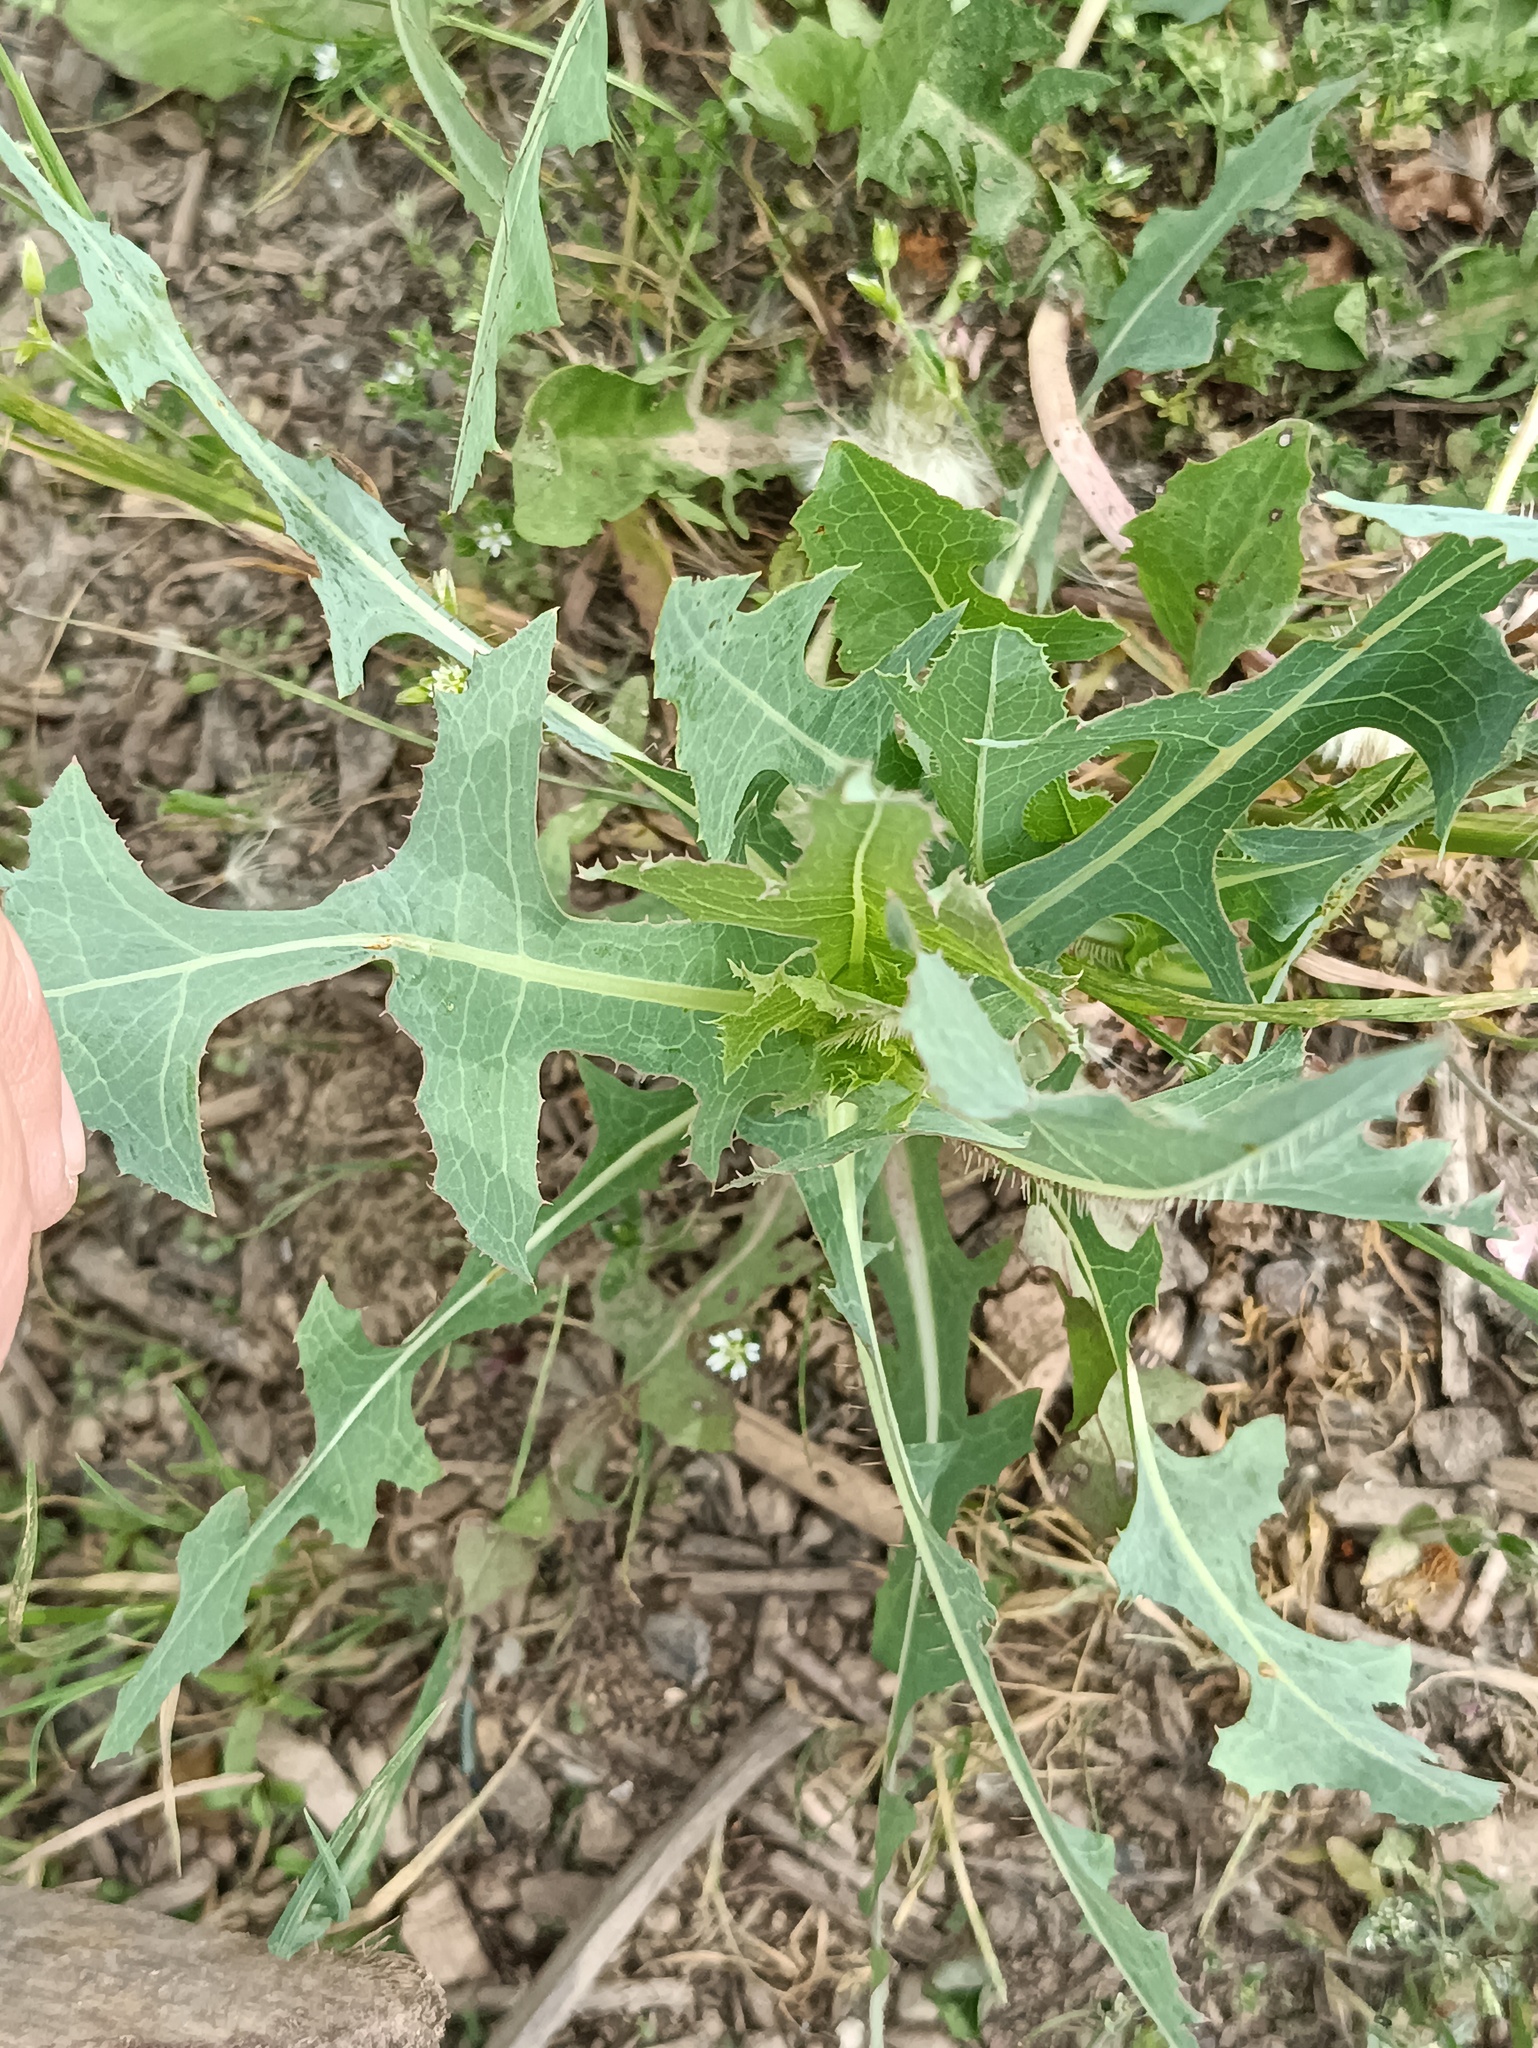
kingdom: Plantae
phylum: Tracheophyta
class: Magnoliopsida
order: Asterales
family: Asteraceae
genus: Lactuca
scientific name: Lactuca serriola
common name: Prickly lettuce
